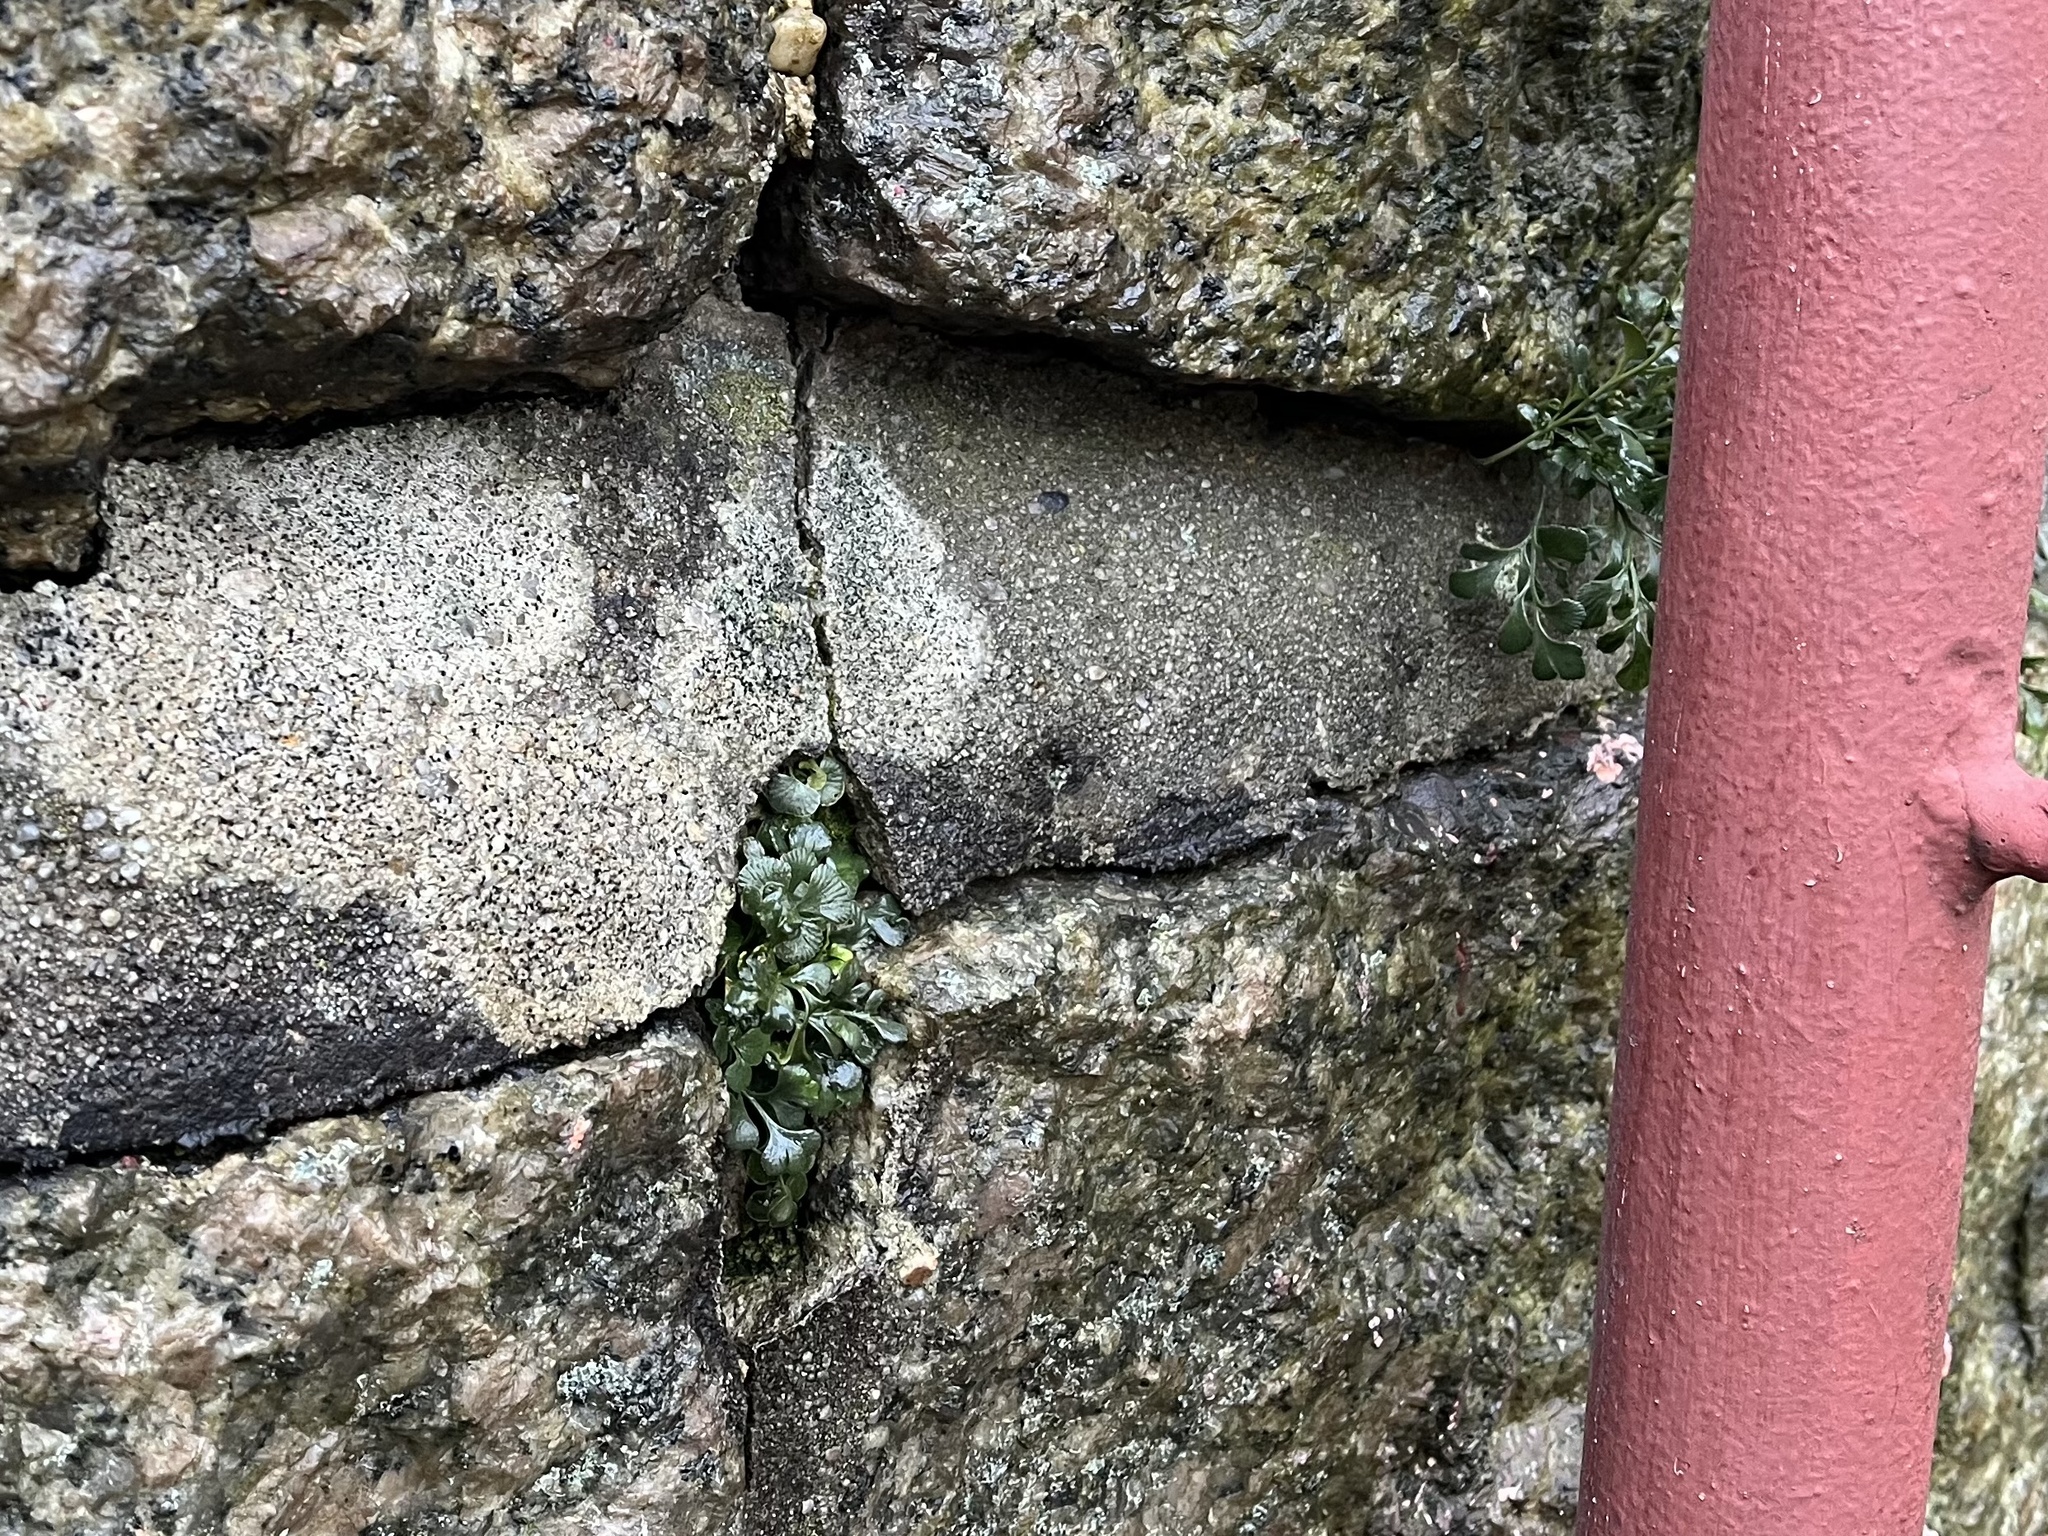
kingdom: Plantae
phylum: Tracheophyta
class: Polypodiopsida
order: Polypodiales
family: Aspleniaceae
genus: Asplenium
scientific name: Asplenium ruta-muraria
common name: Wall-rue
